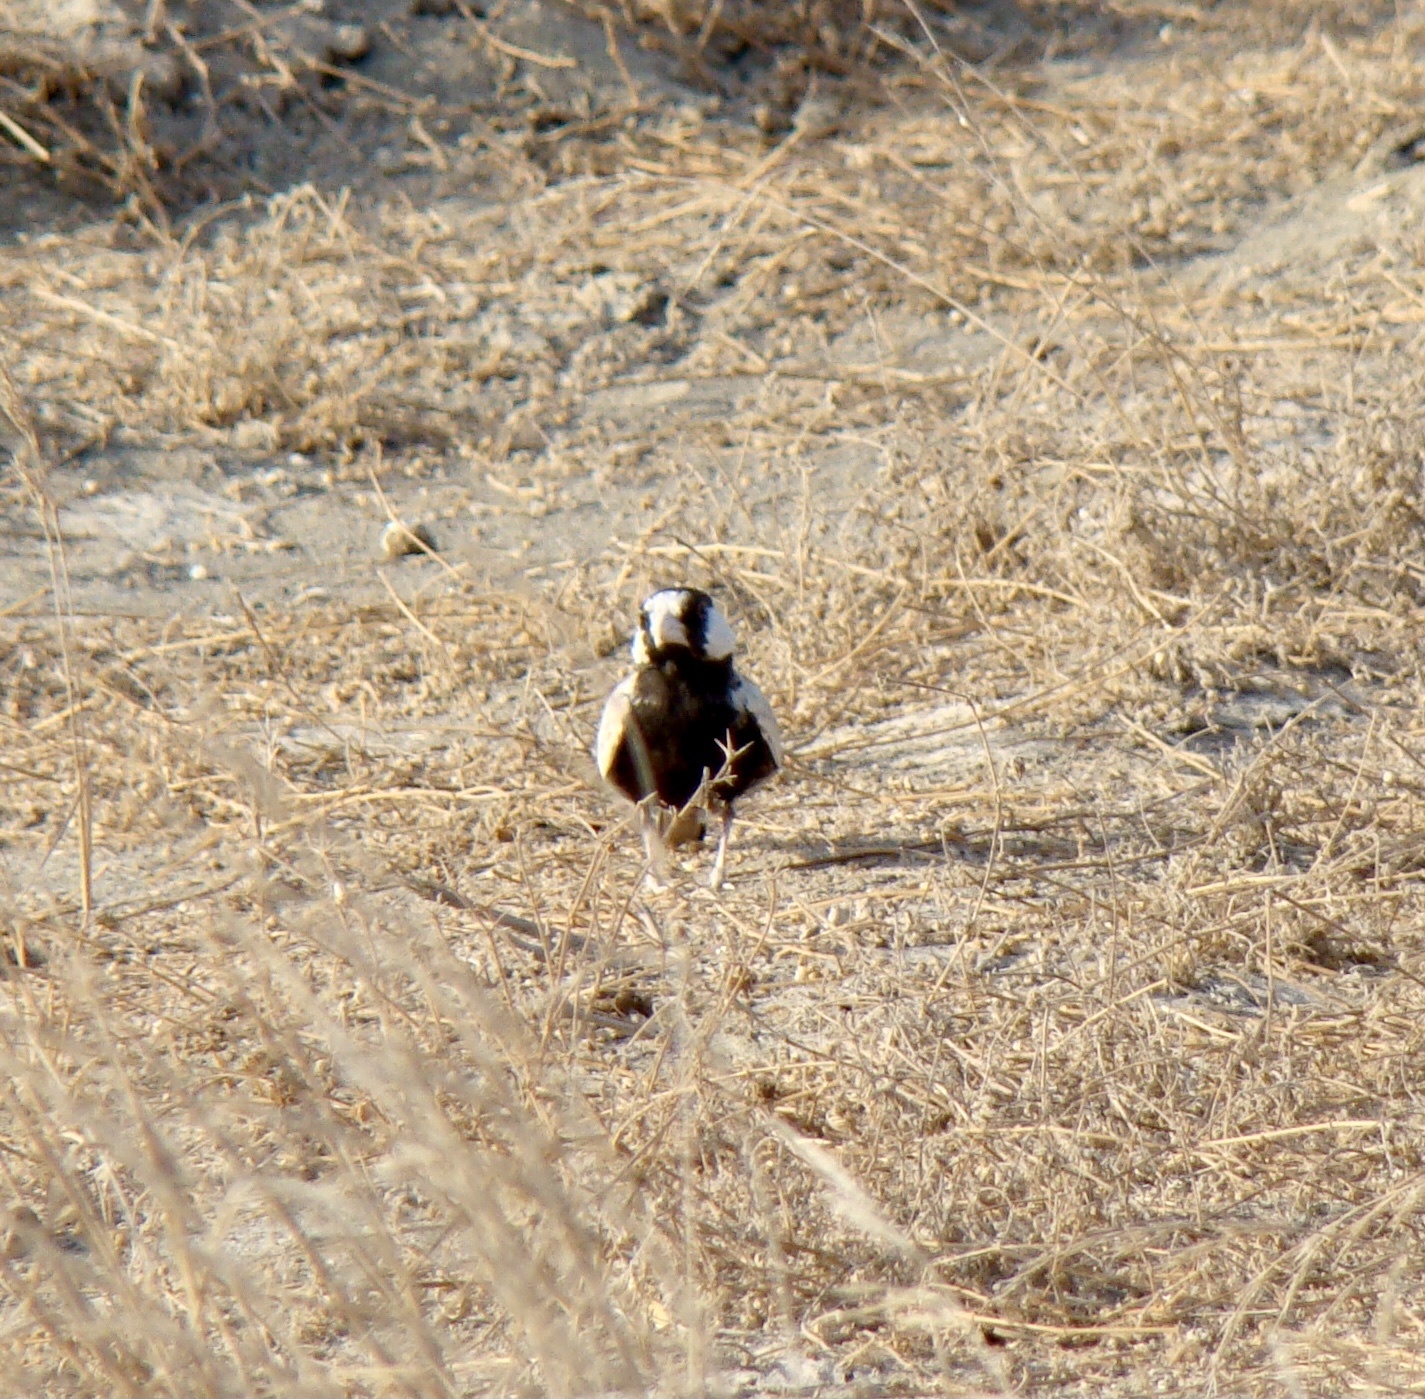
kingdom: Animalia
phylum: Chordata
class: Aves
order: Passeriformes
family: Alaudidae
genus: Eremopterix
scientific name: Eremopterix nigriceps
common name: Black-crowned sparrow-lark
